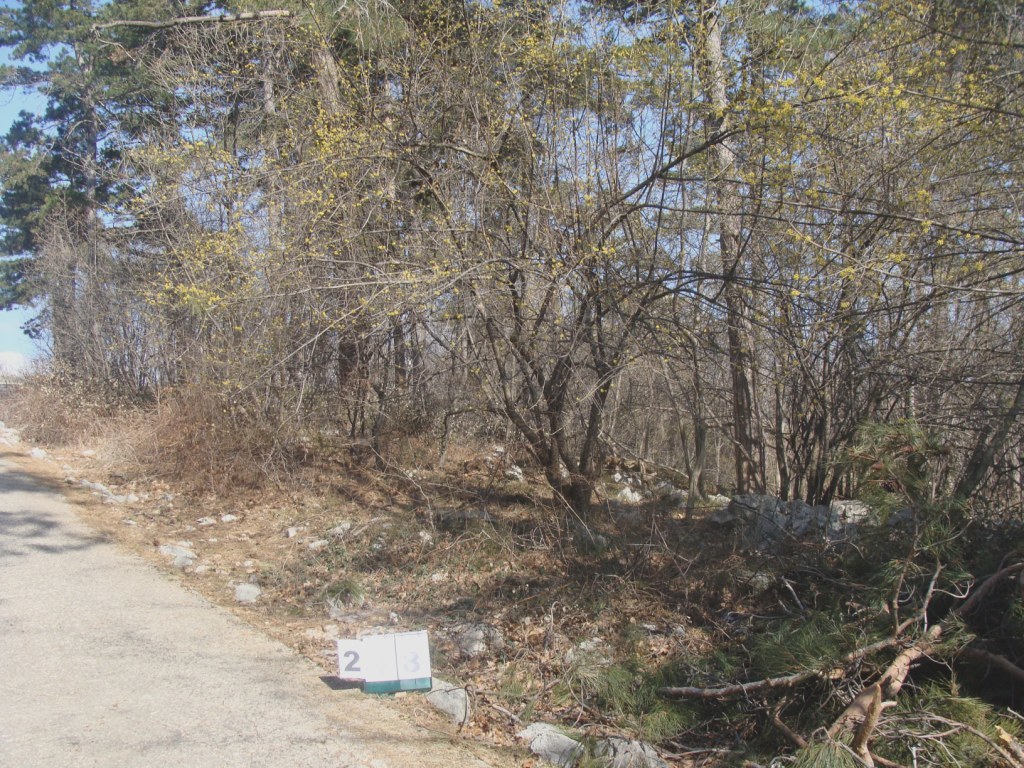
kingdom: Plantae
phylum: Tracheophyta
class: Magnoliopsida
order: Cornales
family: Cornaceae
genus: Cornus
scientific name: Cornus mas
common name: Cornelian-cherry
